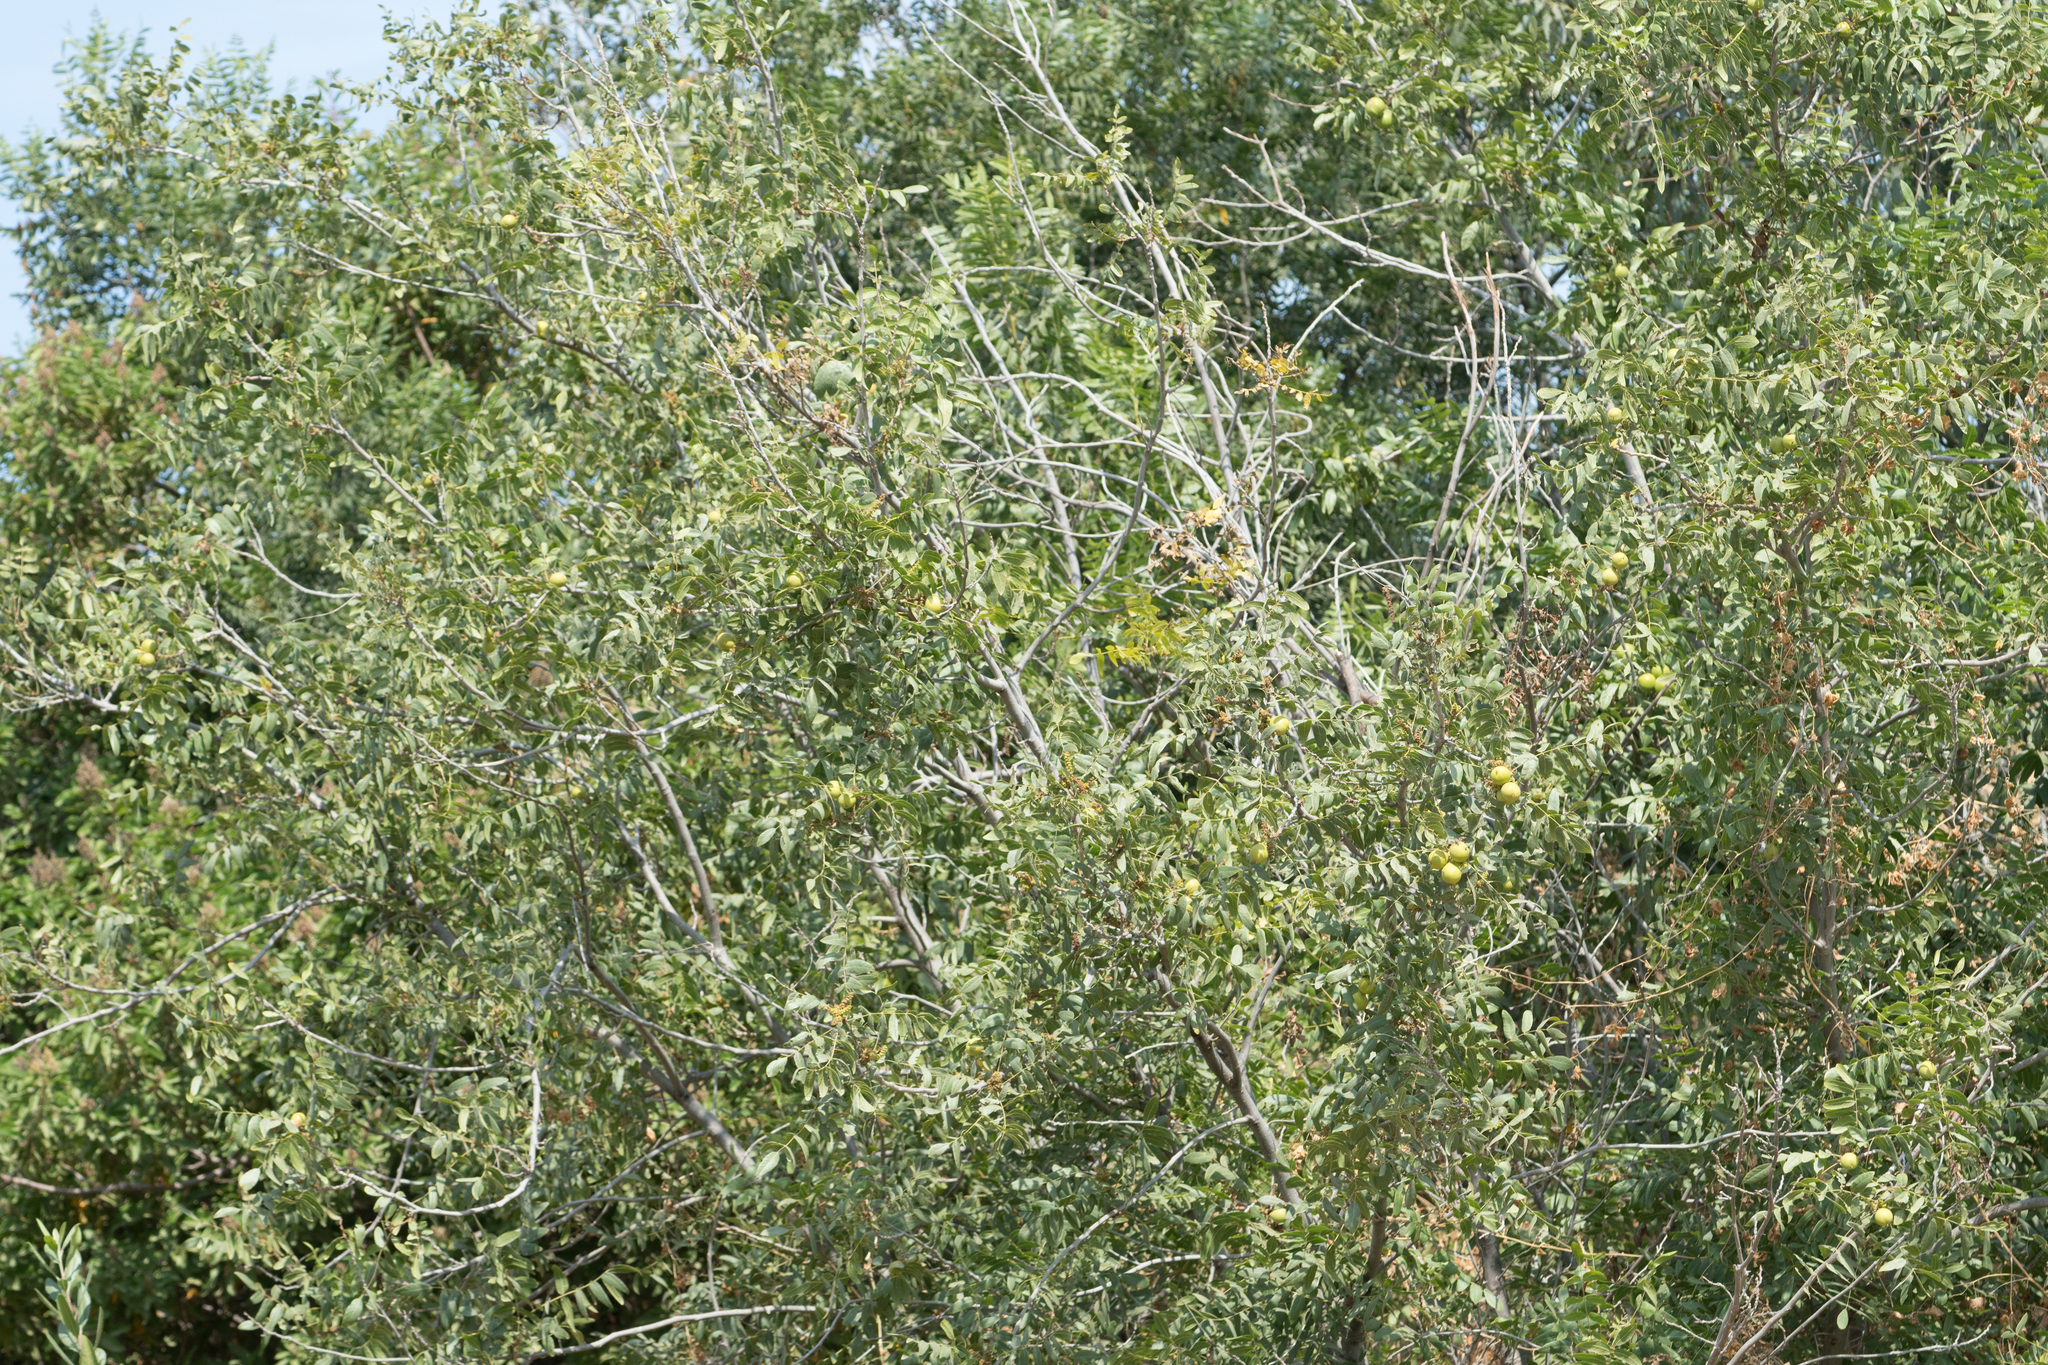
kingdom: Plantae
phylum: Tracheophyta
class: Magnoliopsida
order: Fagales
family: Juglandaceae
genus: Juglans
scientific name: Juglans californica
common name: Southern california black walnut
